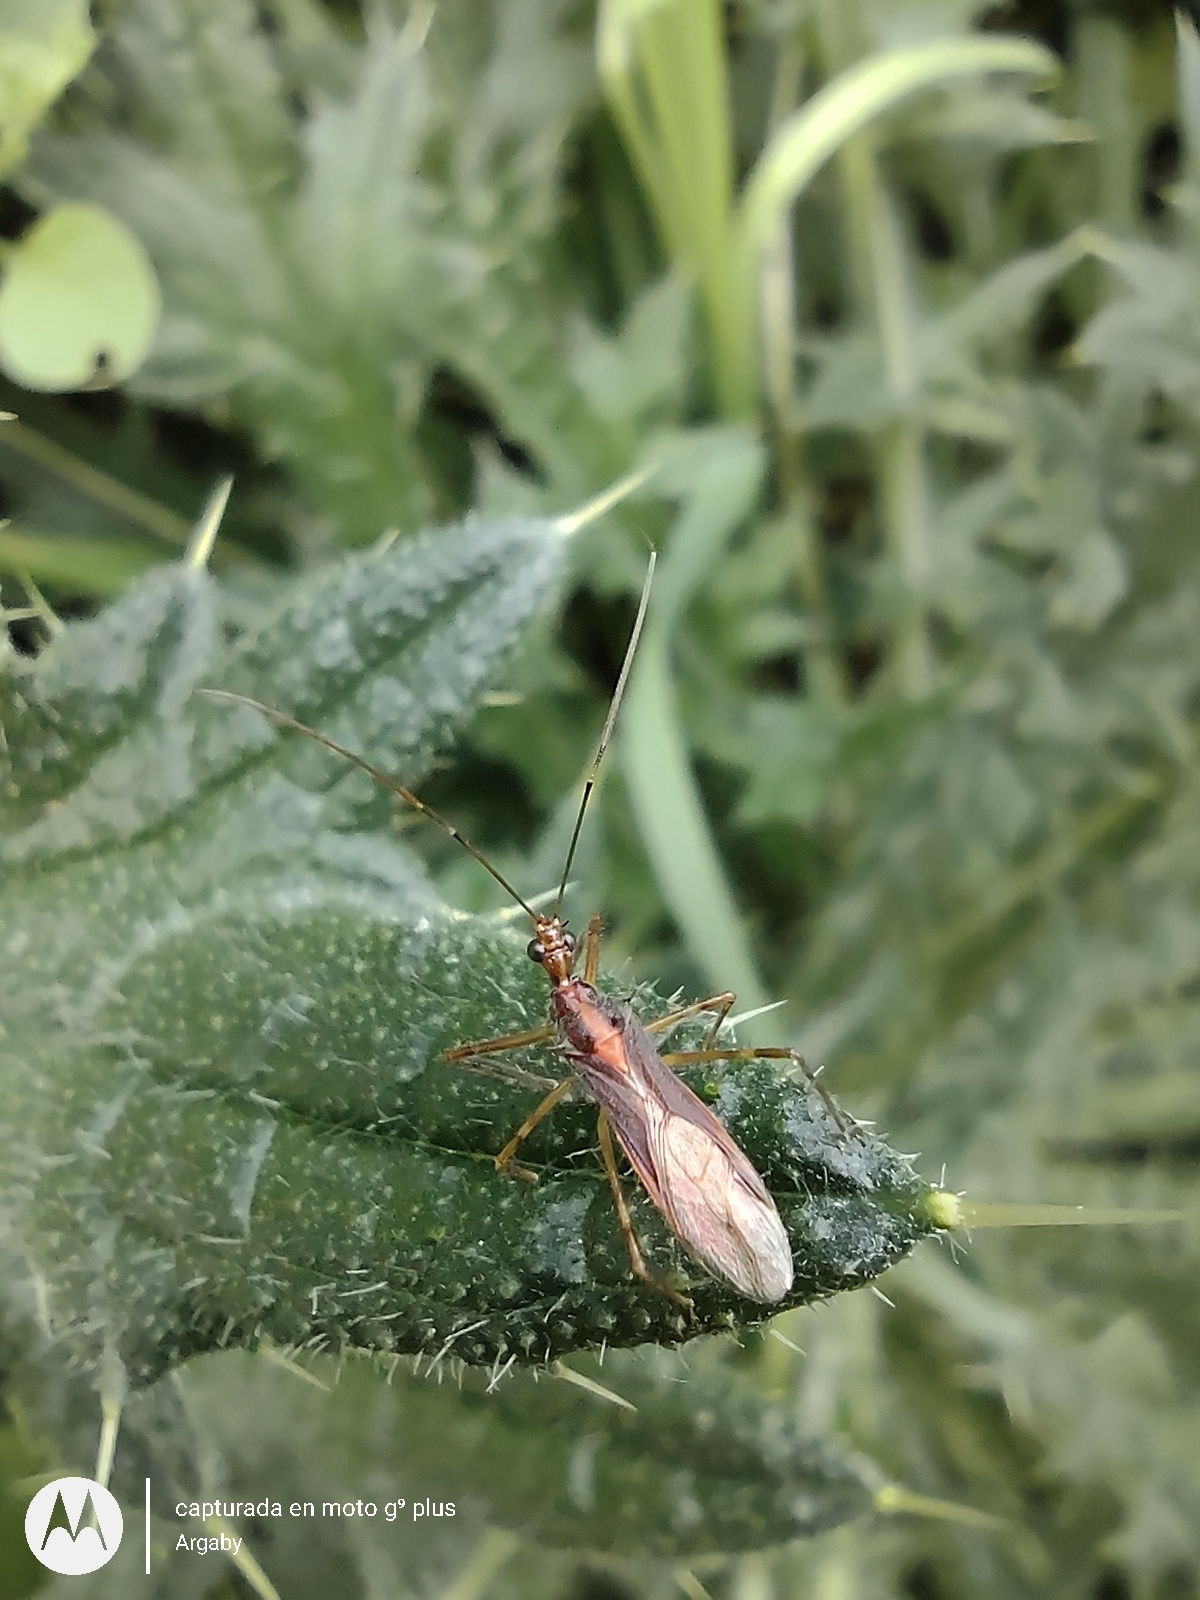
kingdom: Animalia
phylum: Arthropoda
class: Insecta
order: Hemiptera
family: Reduviidae
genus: Repipta
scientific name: Repipta flavicans
